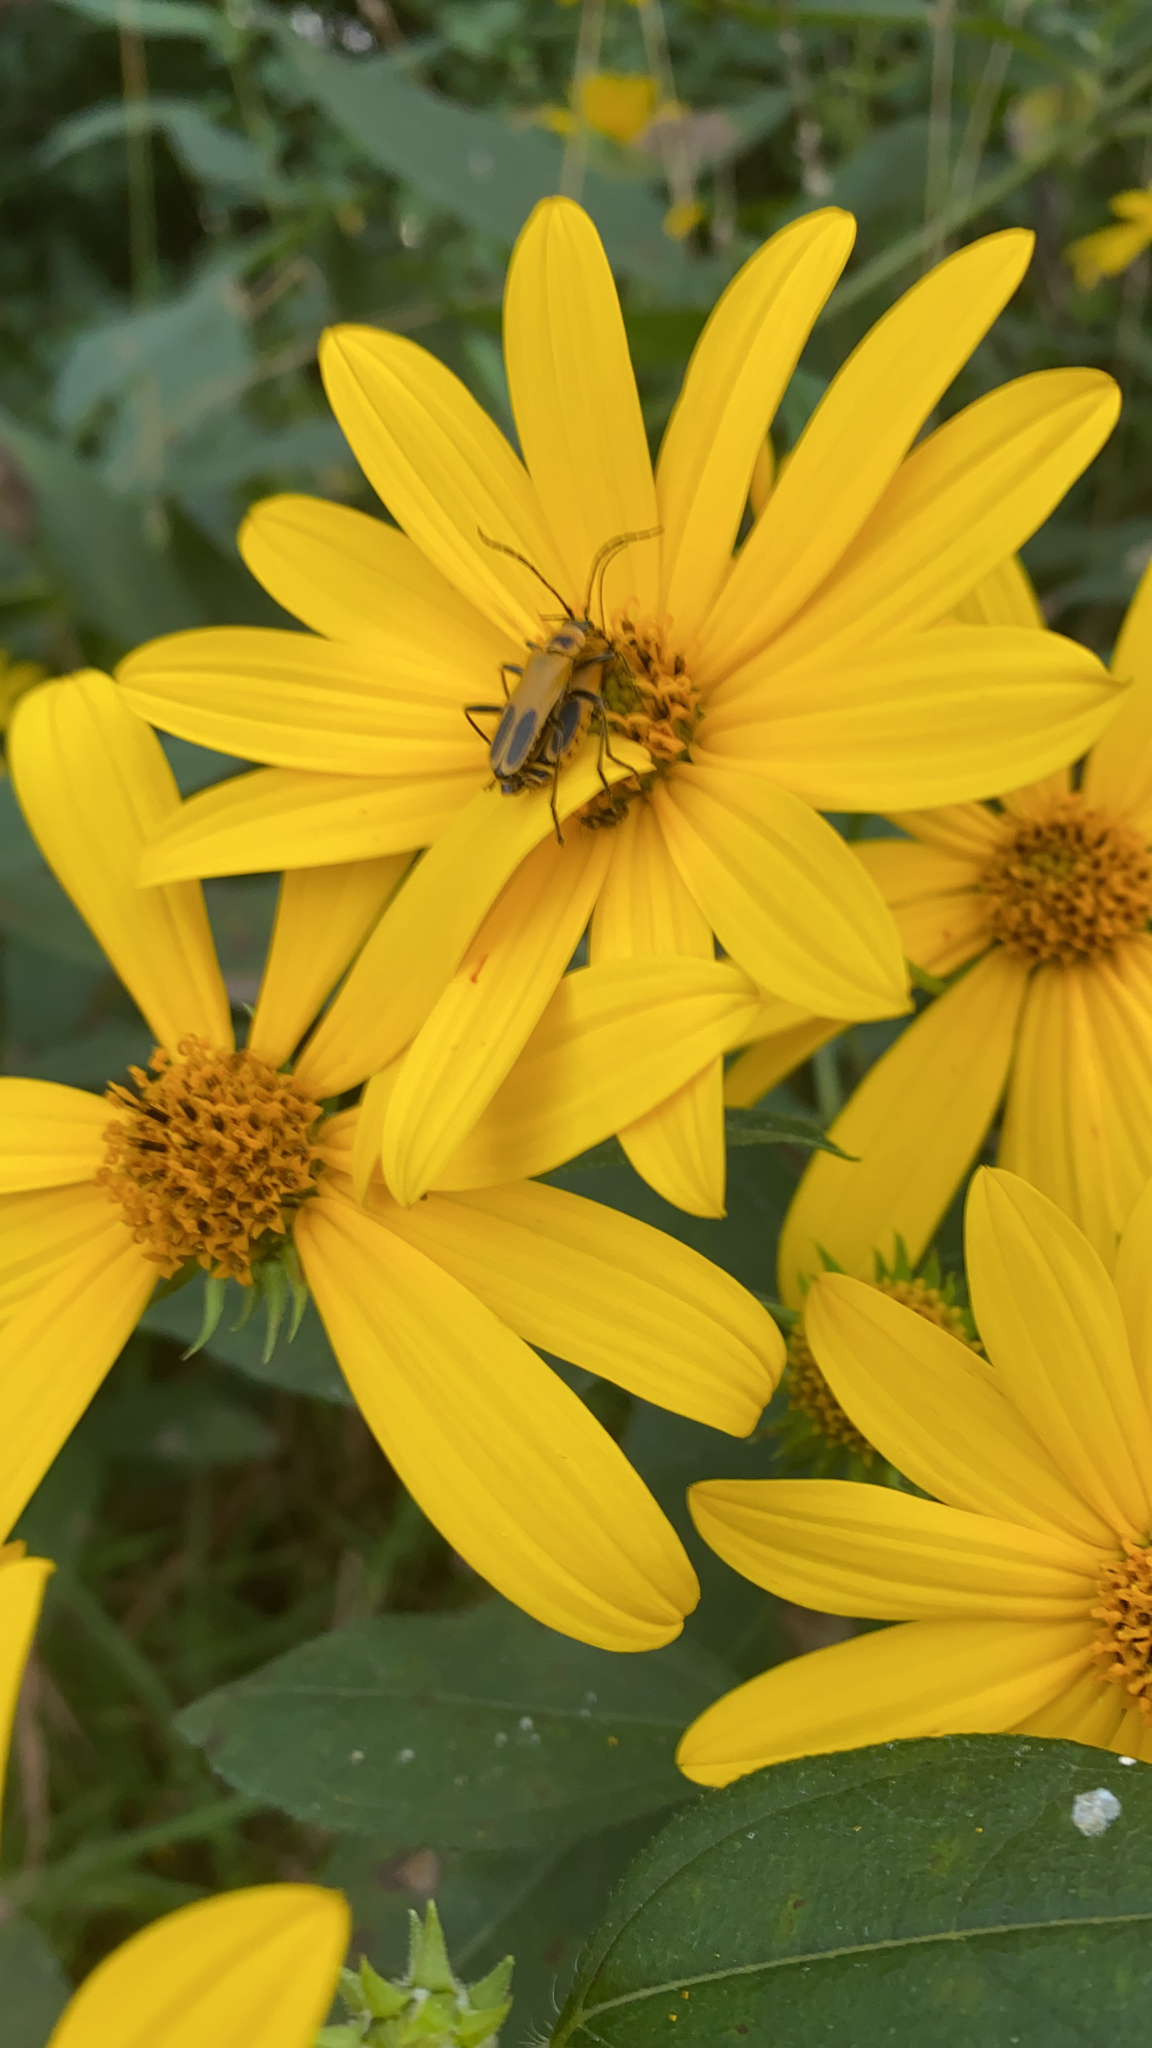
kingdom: Animalia
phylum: Arthropoda
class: Insecta
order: Coleoptera
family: Cantharidae
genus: Chauliognathus
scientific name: Chauliognathus pensylvanicus
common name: Goldenrod soldier beetle
